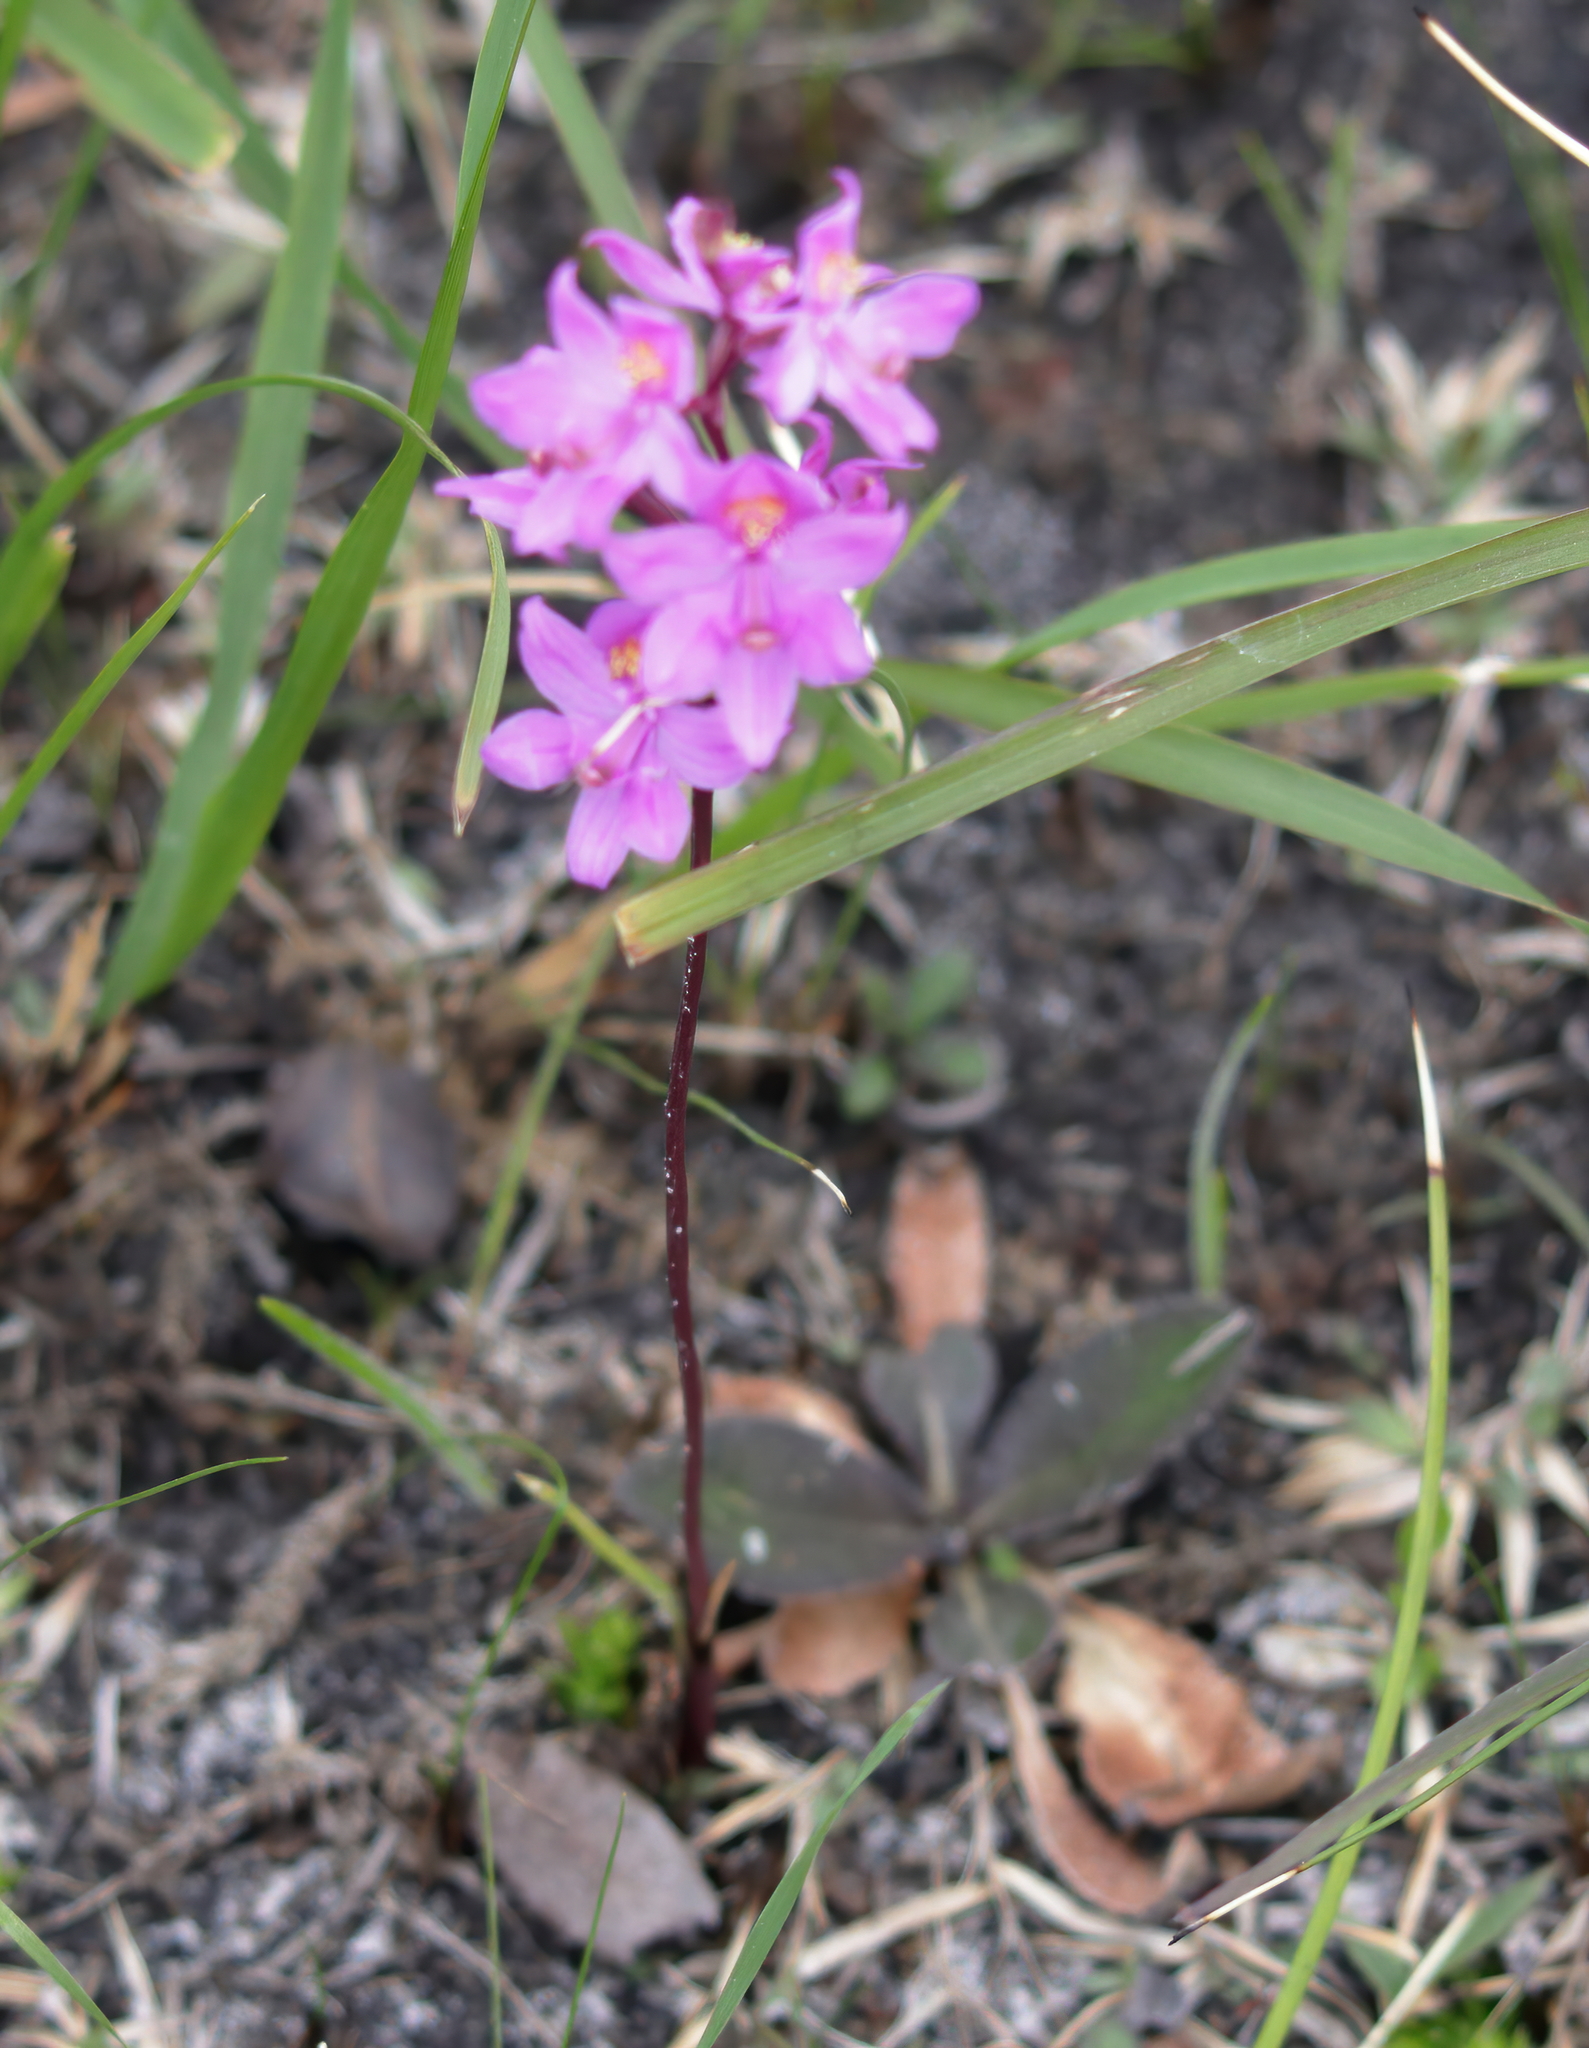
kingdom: Plantae
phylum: Tracheophyta
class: Liliopsida
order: Asparagales
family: Orchidaceae
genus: Calopogon
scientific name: Calopogon multiflorus
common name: Many-flowered grass-pink orchid
